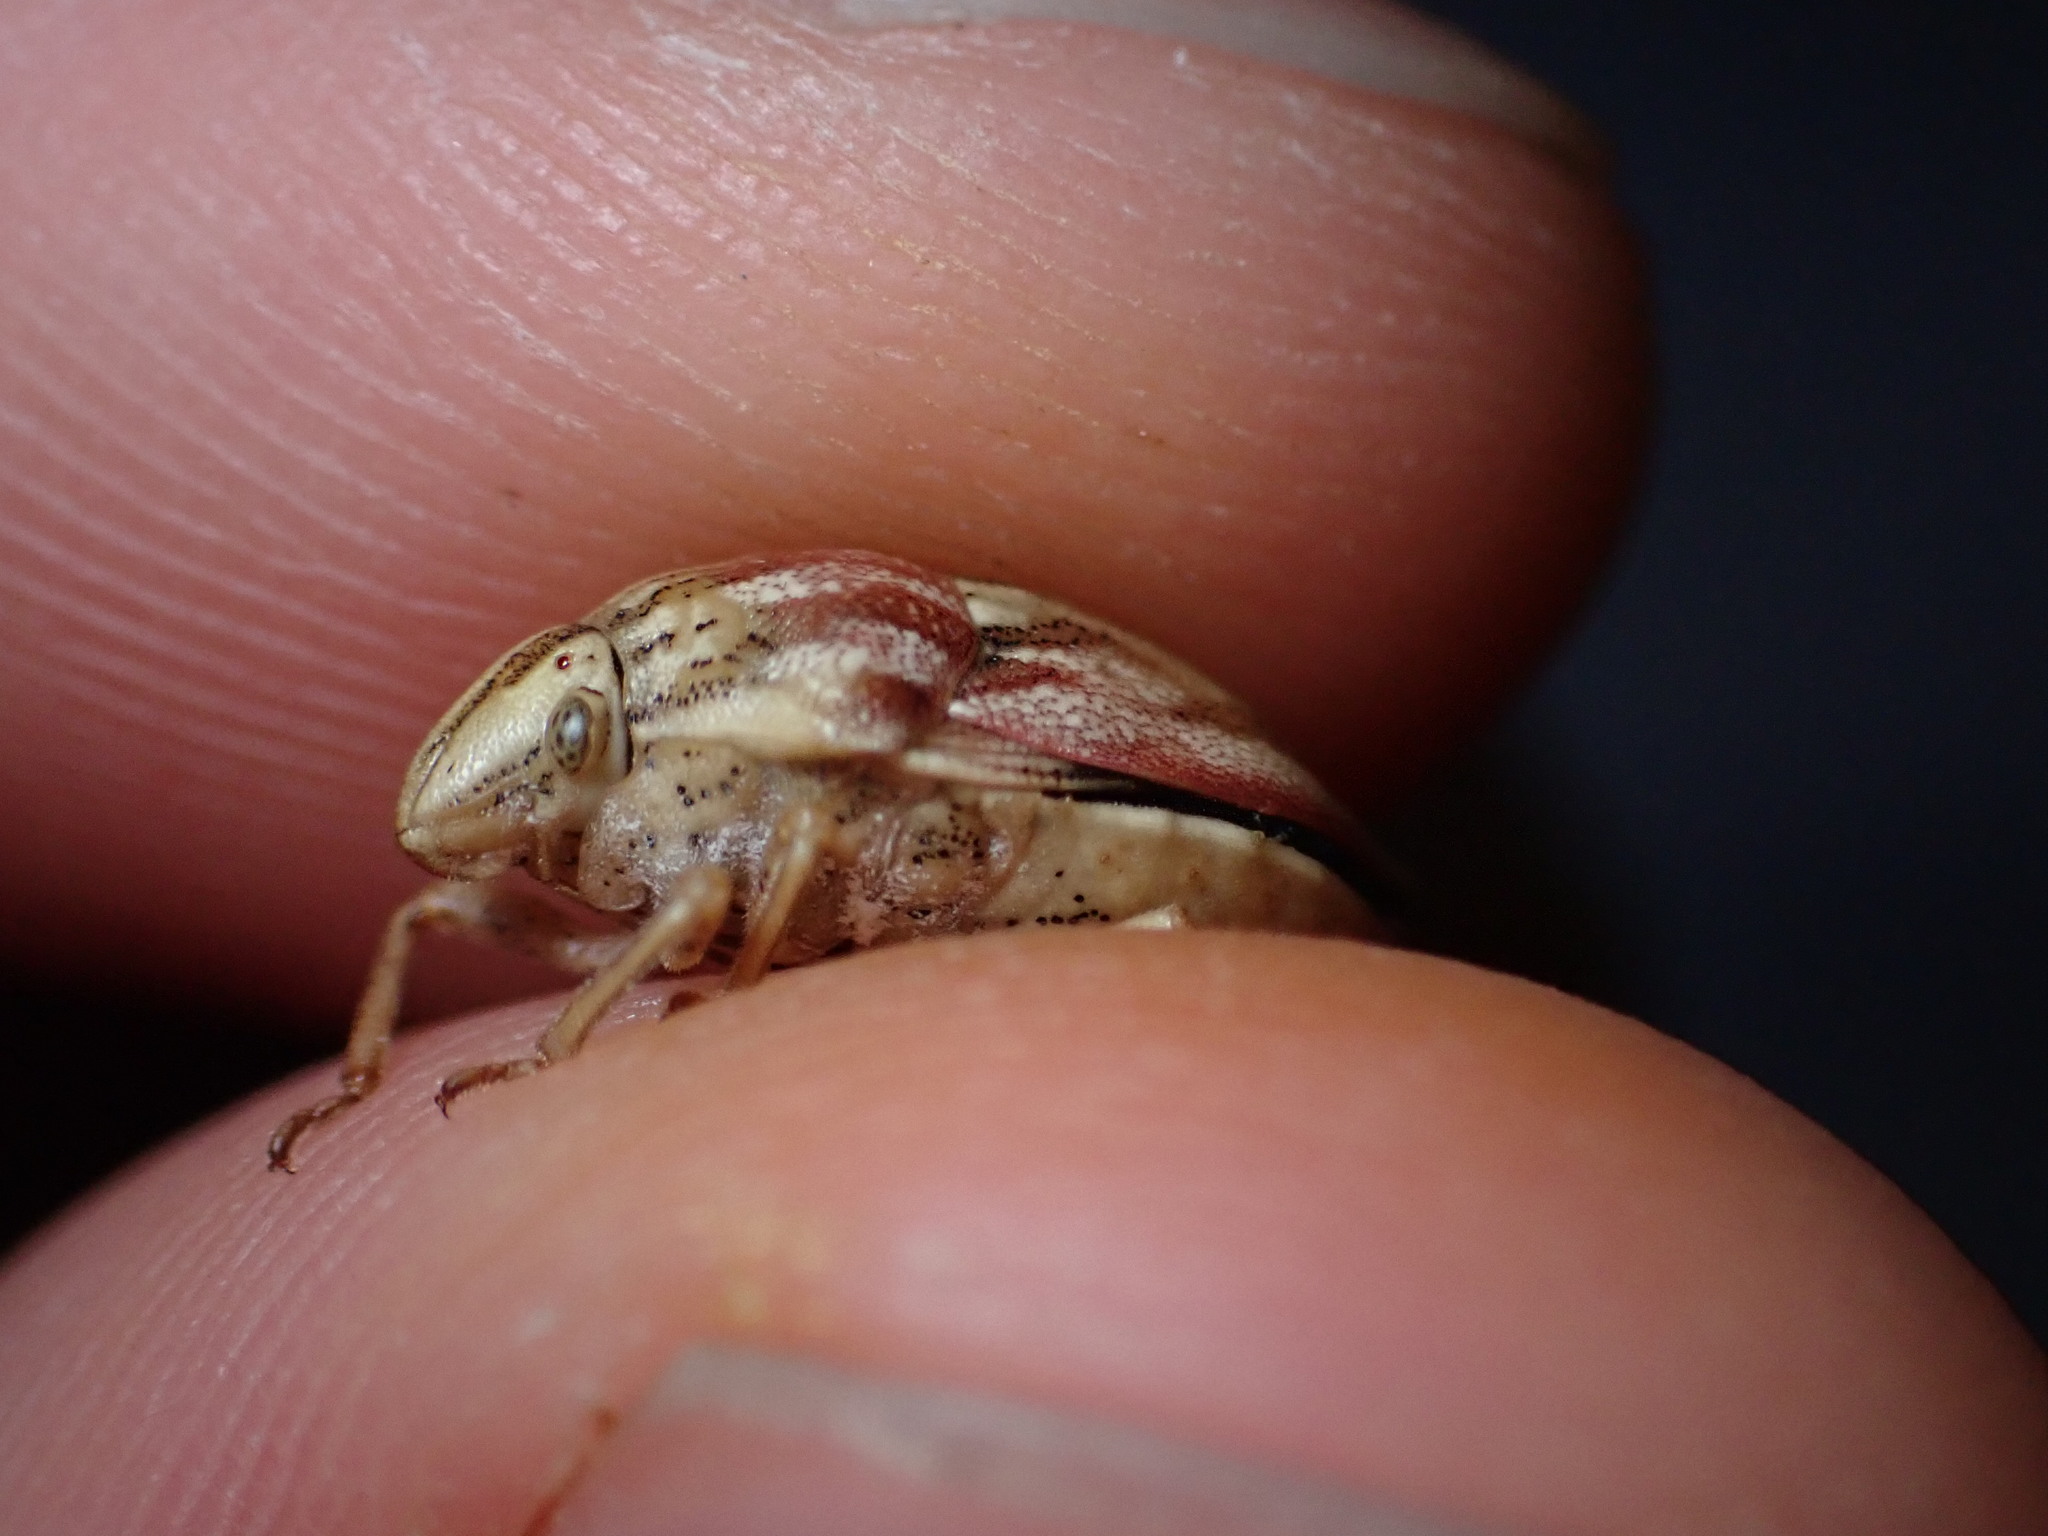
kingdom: Animalia
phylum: Arthropoda
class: Insecta
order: Hemiptera
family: Scutelleridae
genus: Odontotarsus
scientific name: Odontotarsus purpureolineatus
